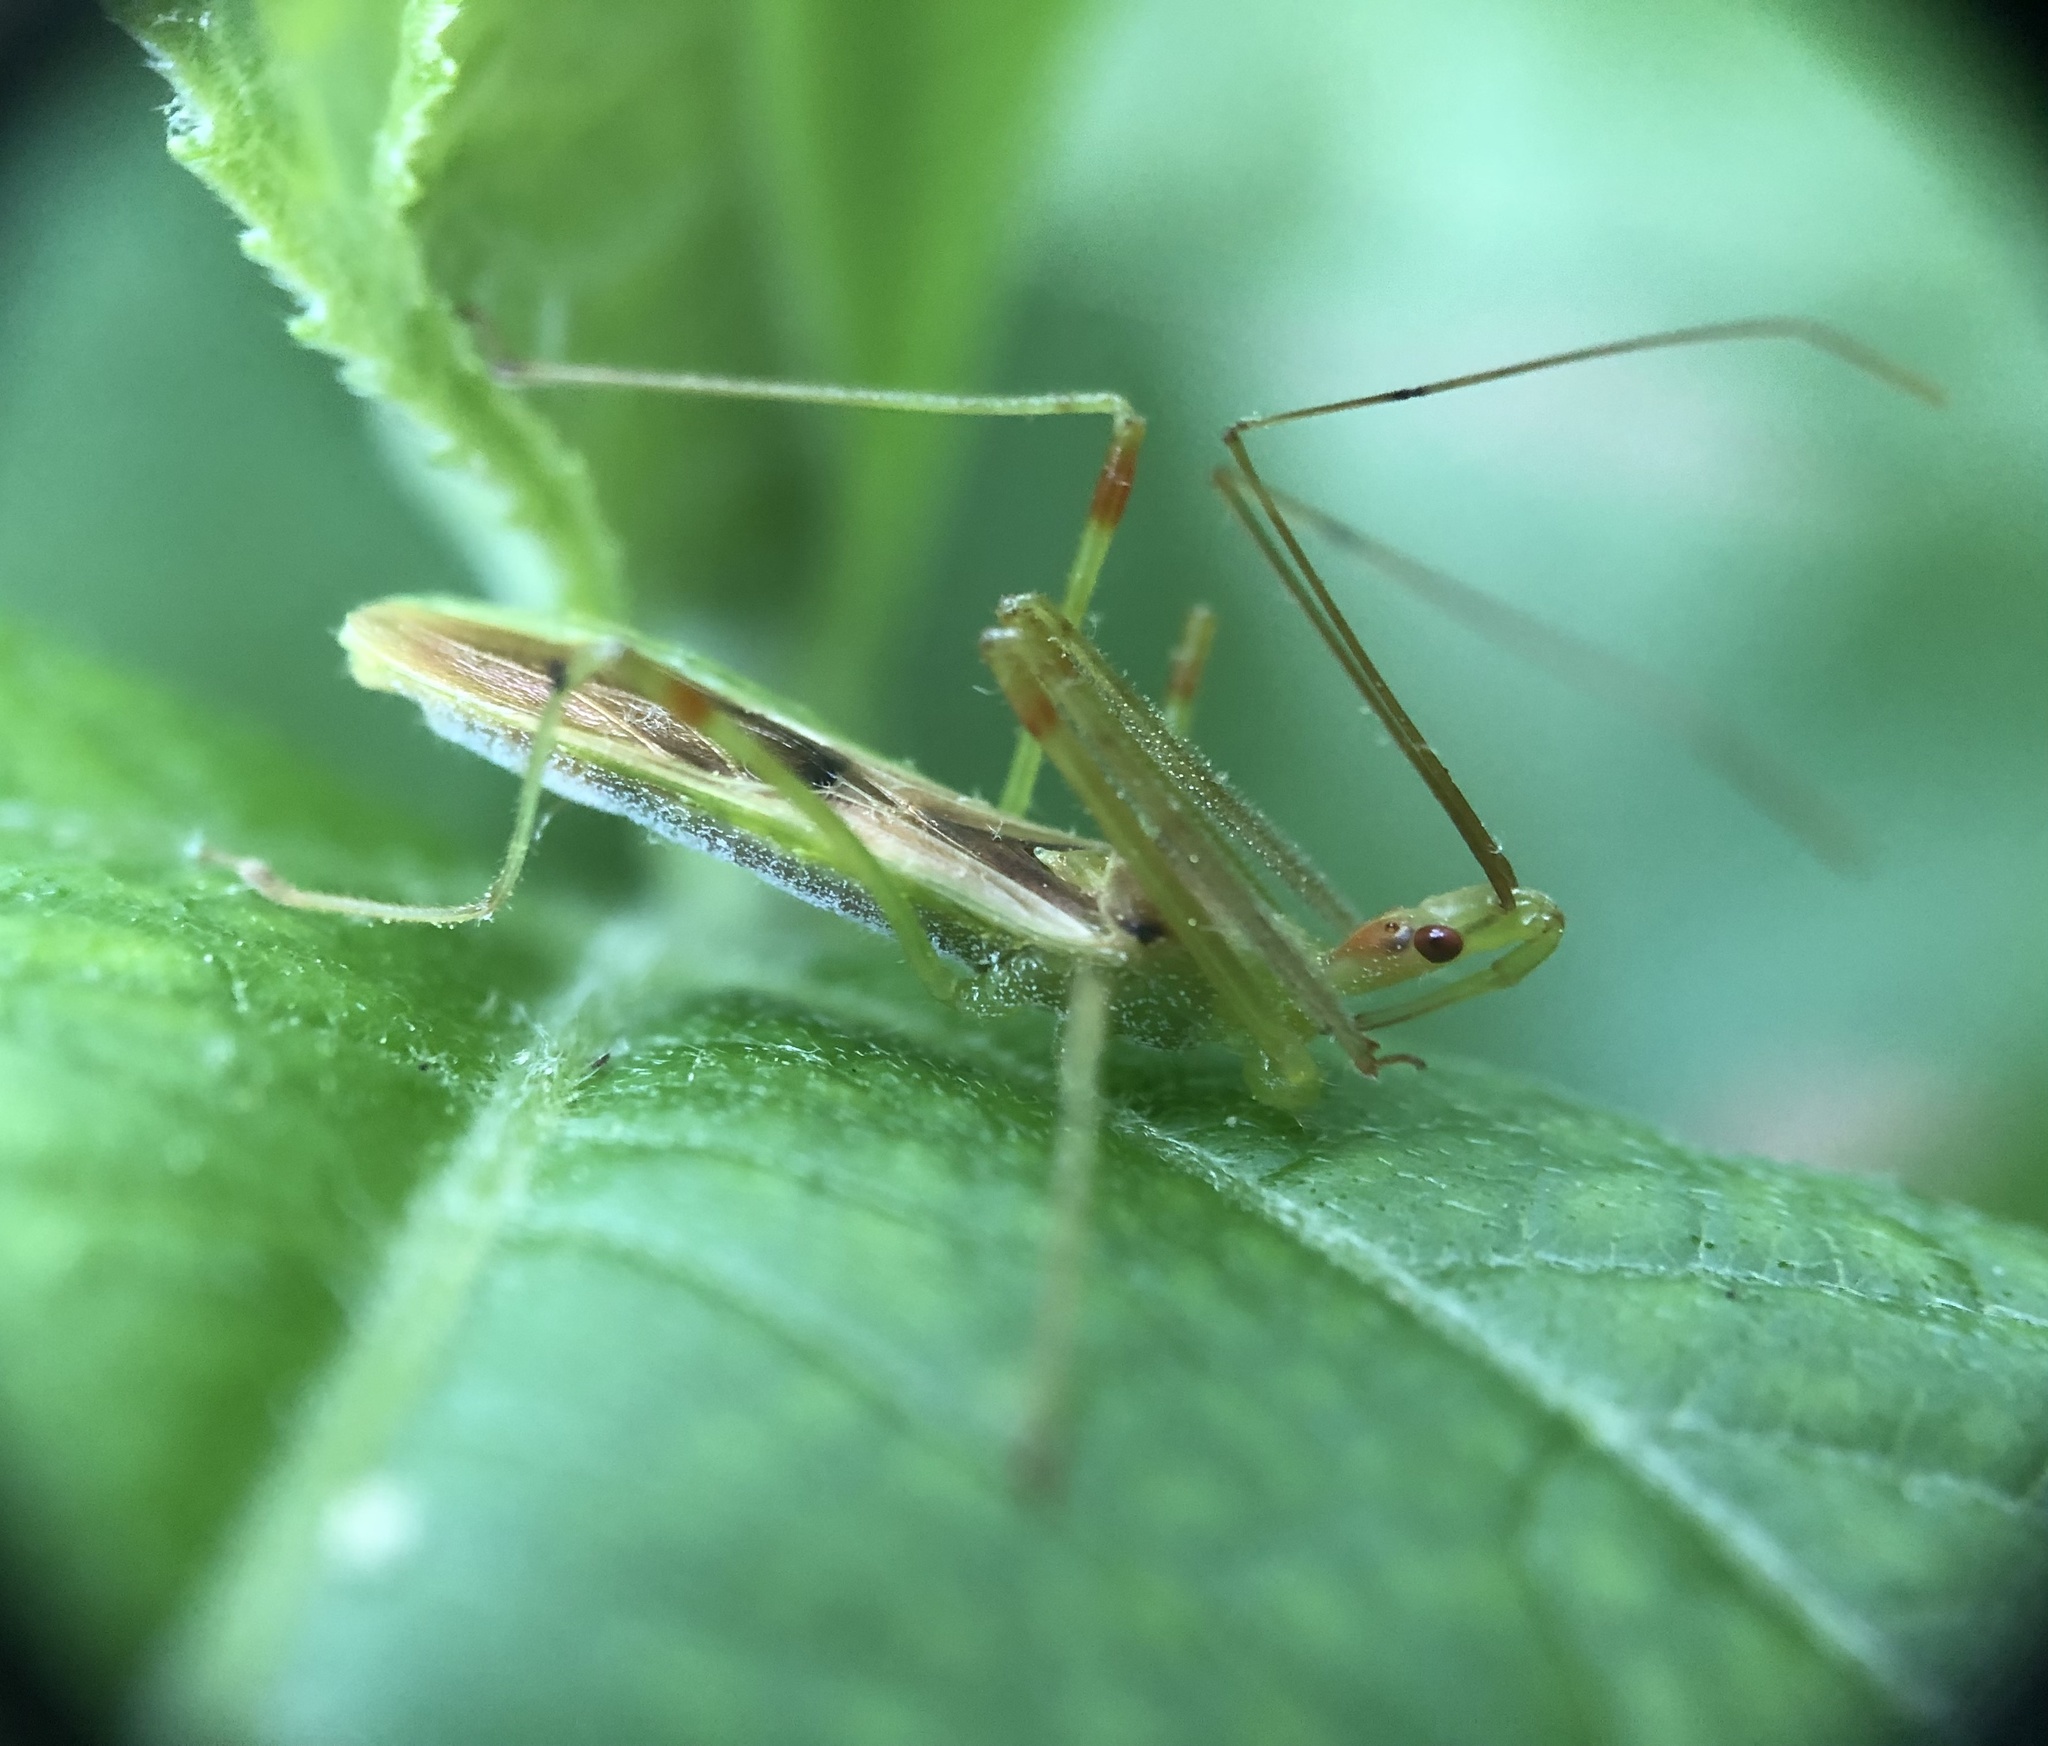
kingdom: Animalia
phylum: Arthropoda
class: Insecta
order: Hemiptera
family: Reduviidae
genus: Zelus
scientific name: Zelus luridus
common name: Pale green assassin bug
